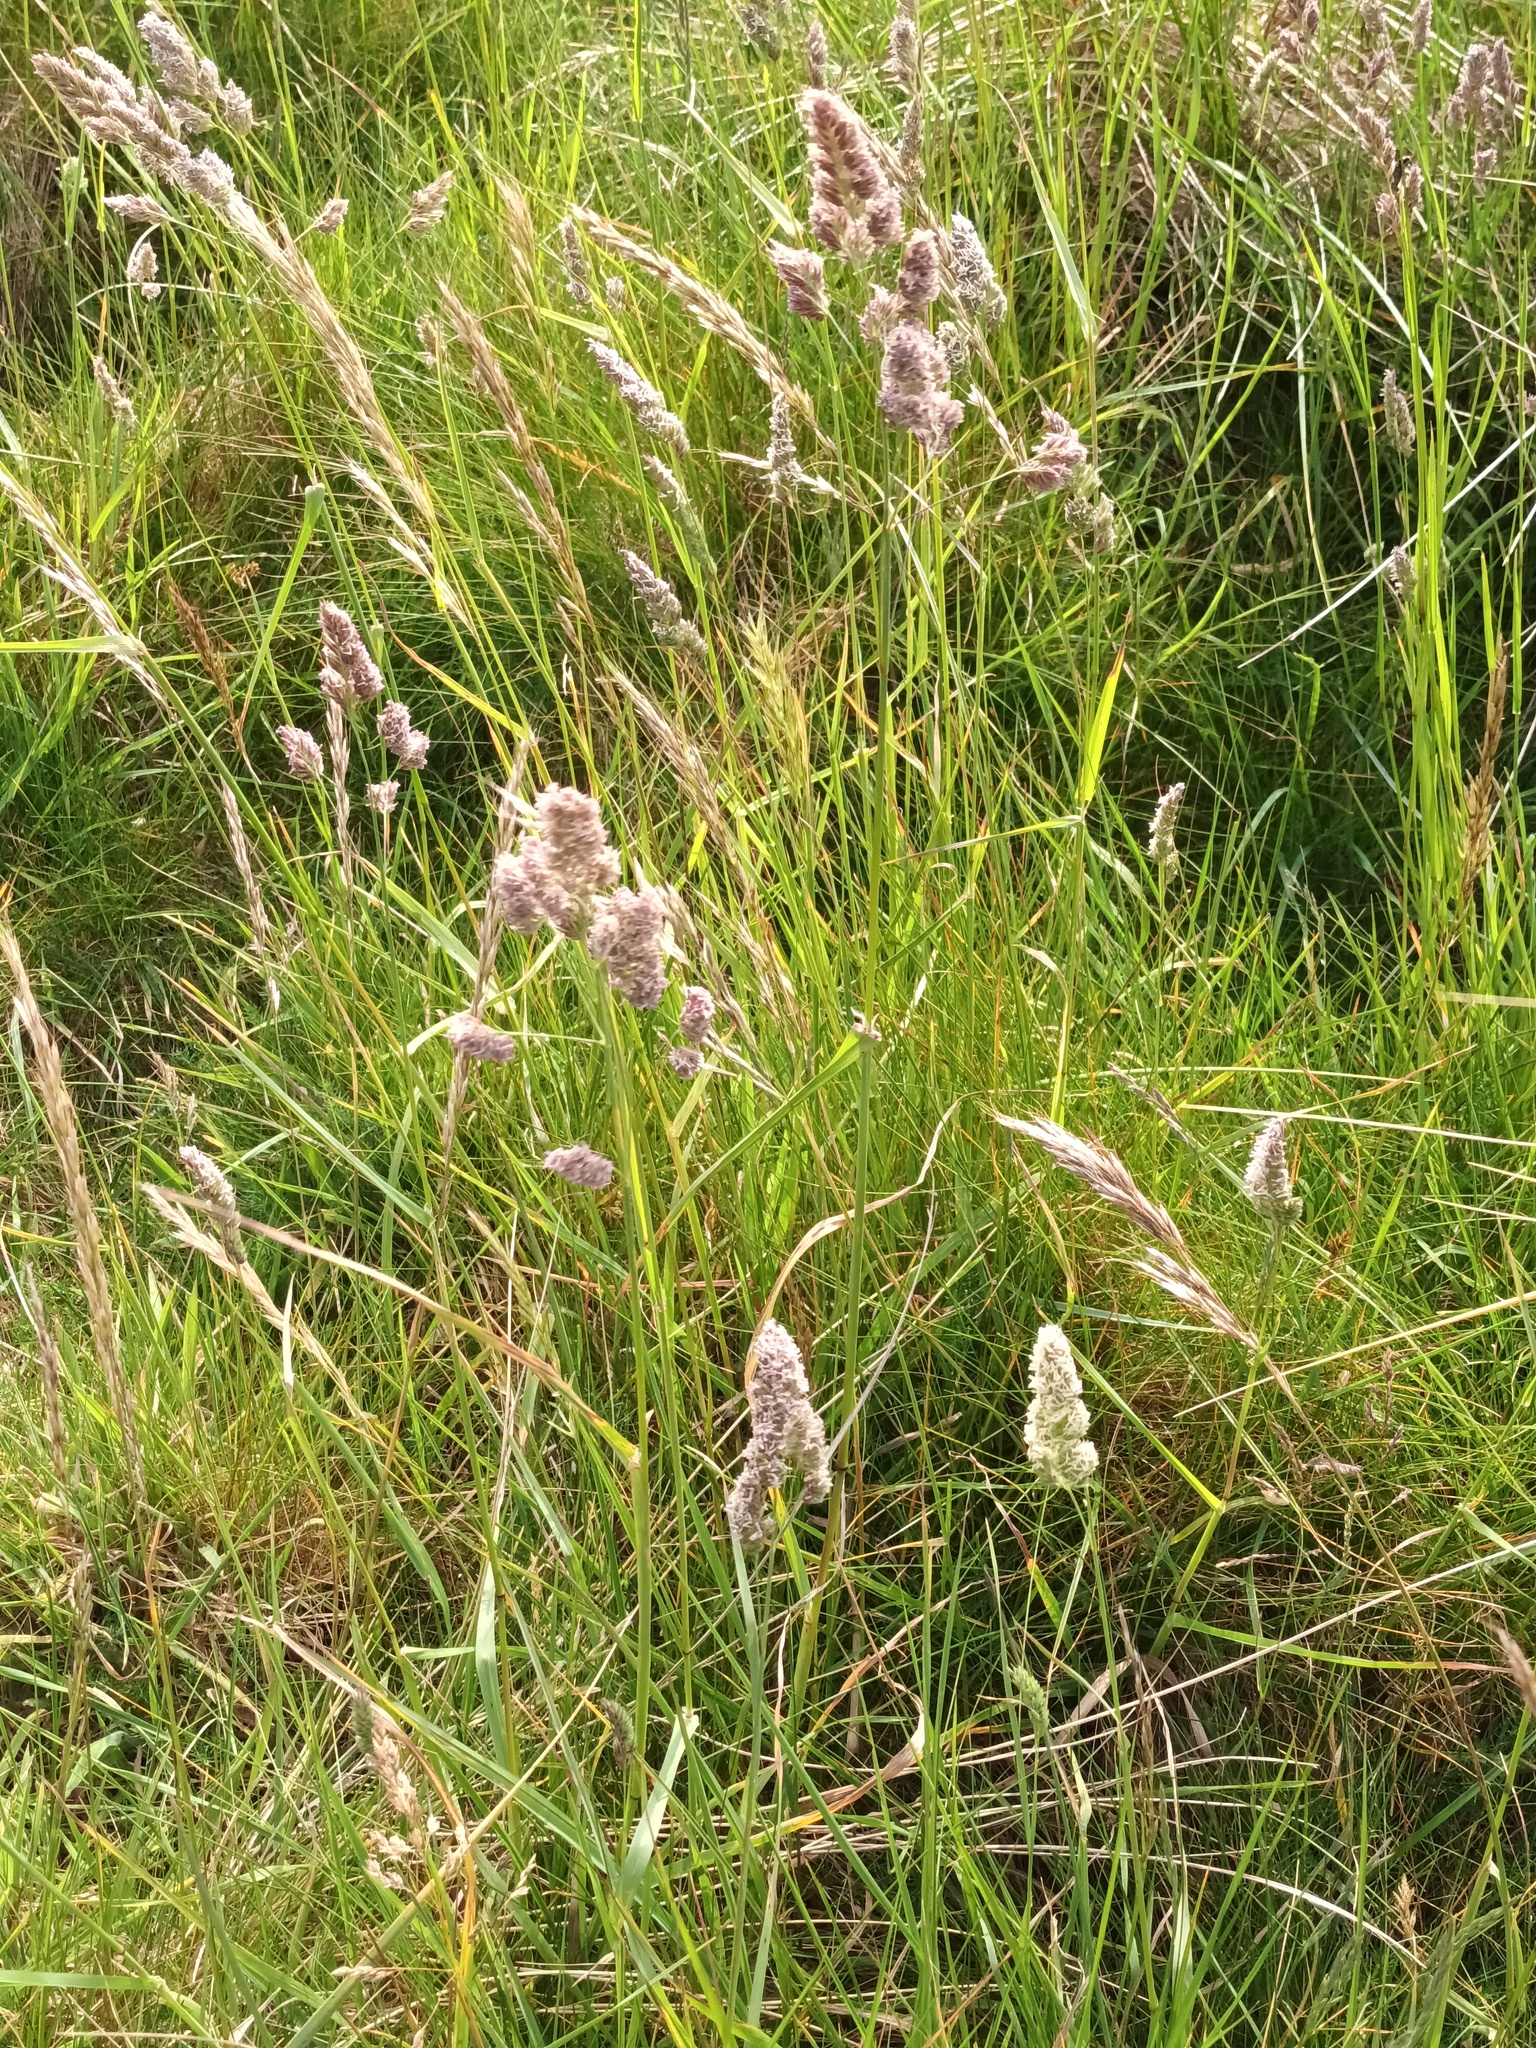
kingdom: Plantae
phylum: Tracheophyta
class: Liliopsida
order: Poales
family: Poaceae
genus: Dactylis
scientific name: Dactylis glomerata
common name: Orchardgrass
